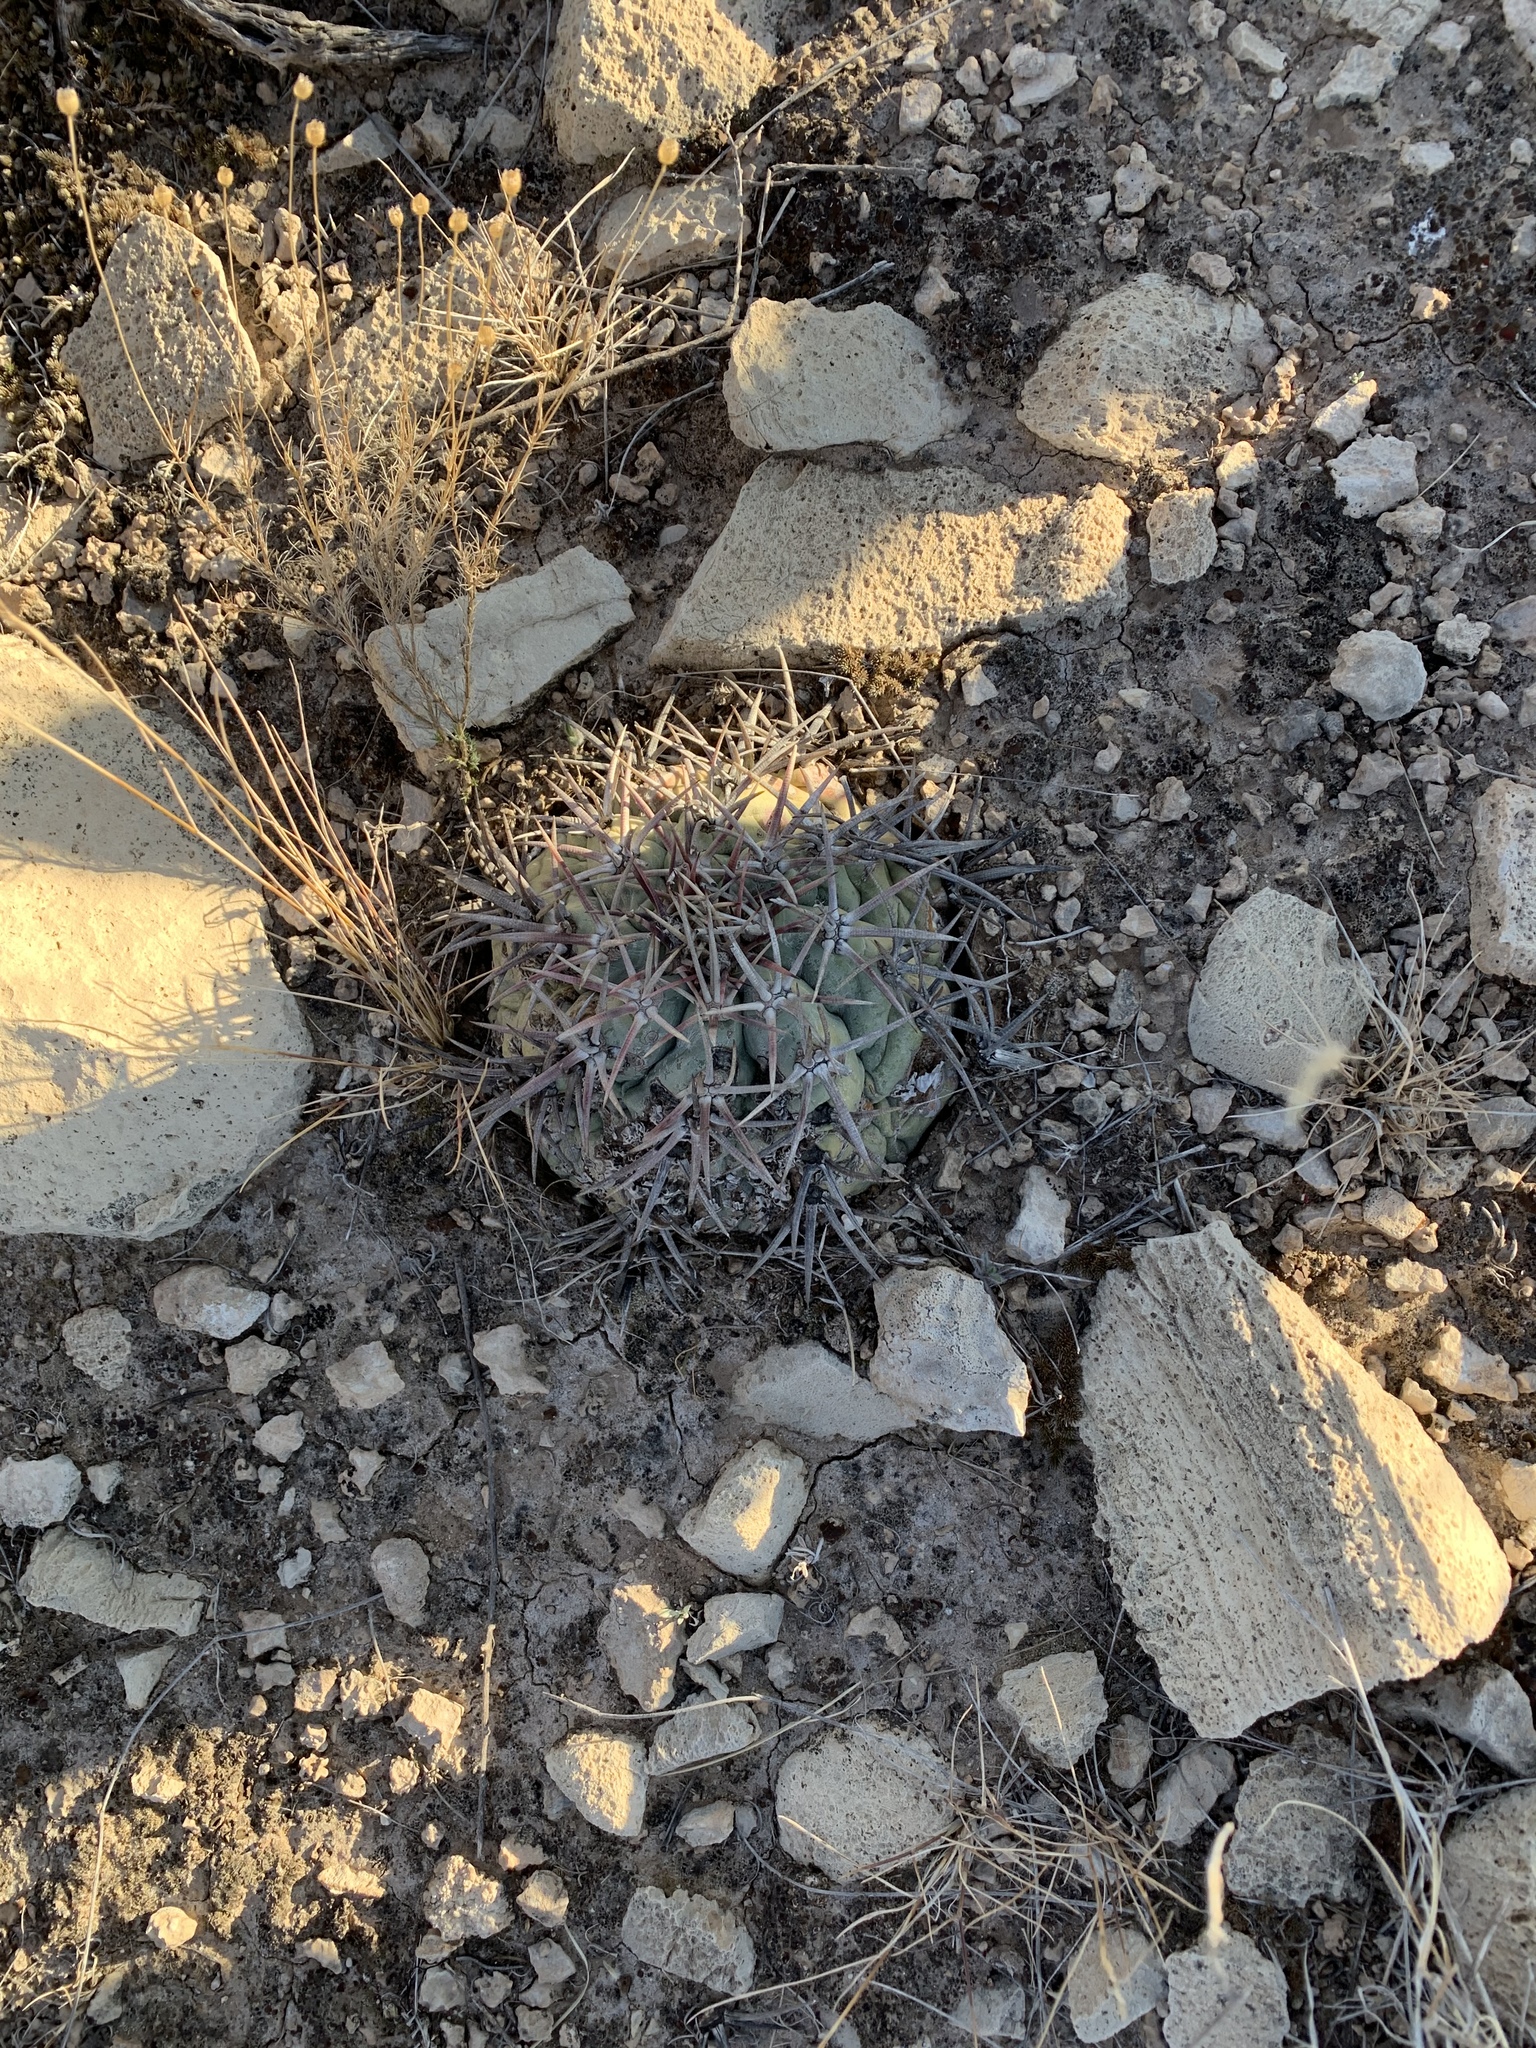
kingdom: Plantae
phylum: Tracheophyta
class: Magnoliopsida
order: Caryophyllales
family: Cactaceae
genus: Echinocactus
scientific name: Echinocactus horizonthalonius
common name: Devilshead
